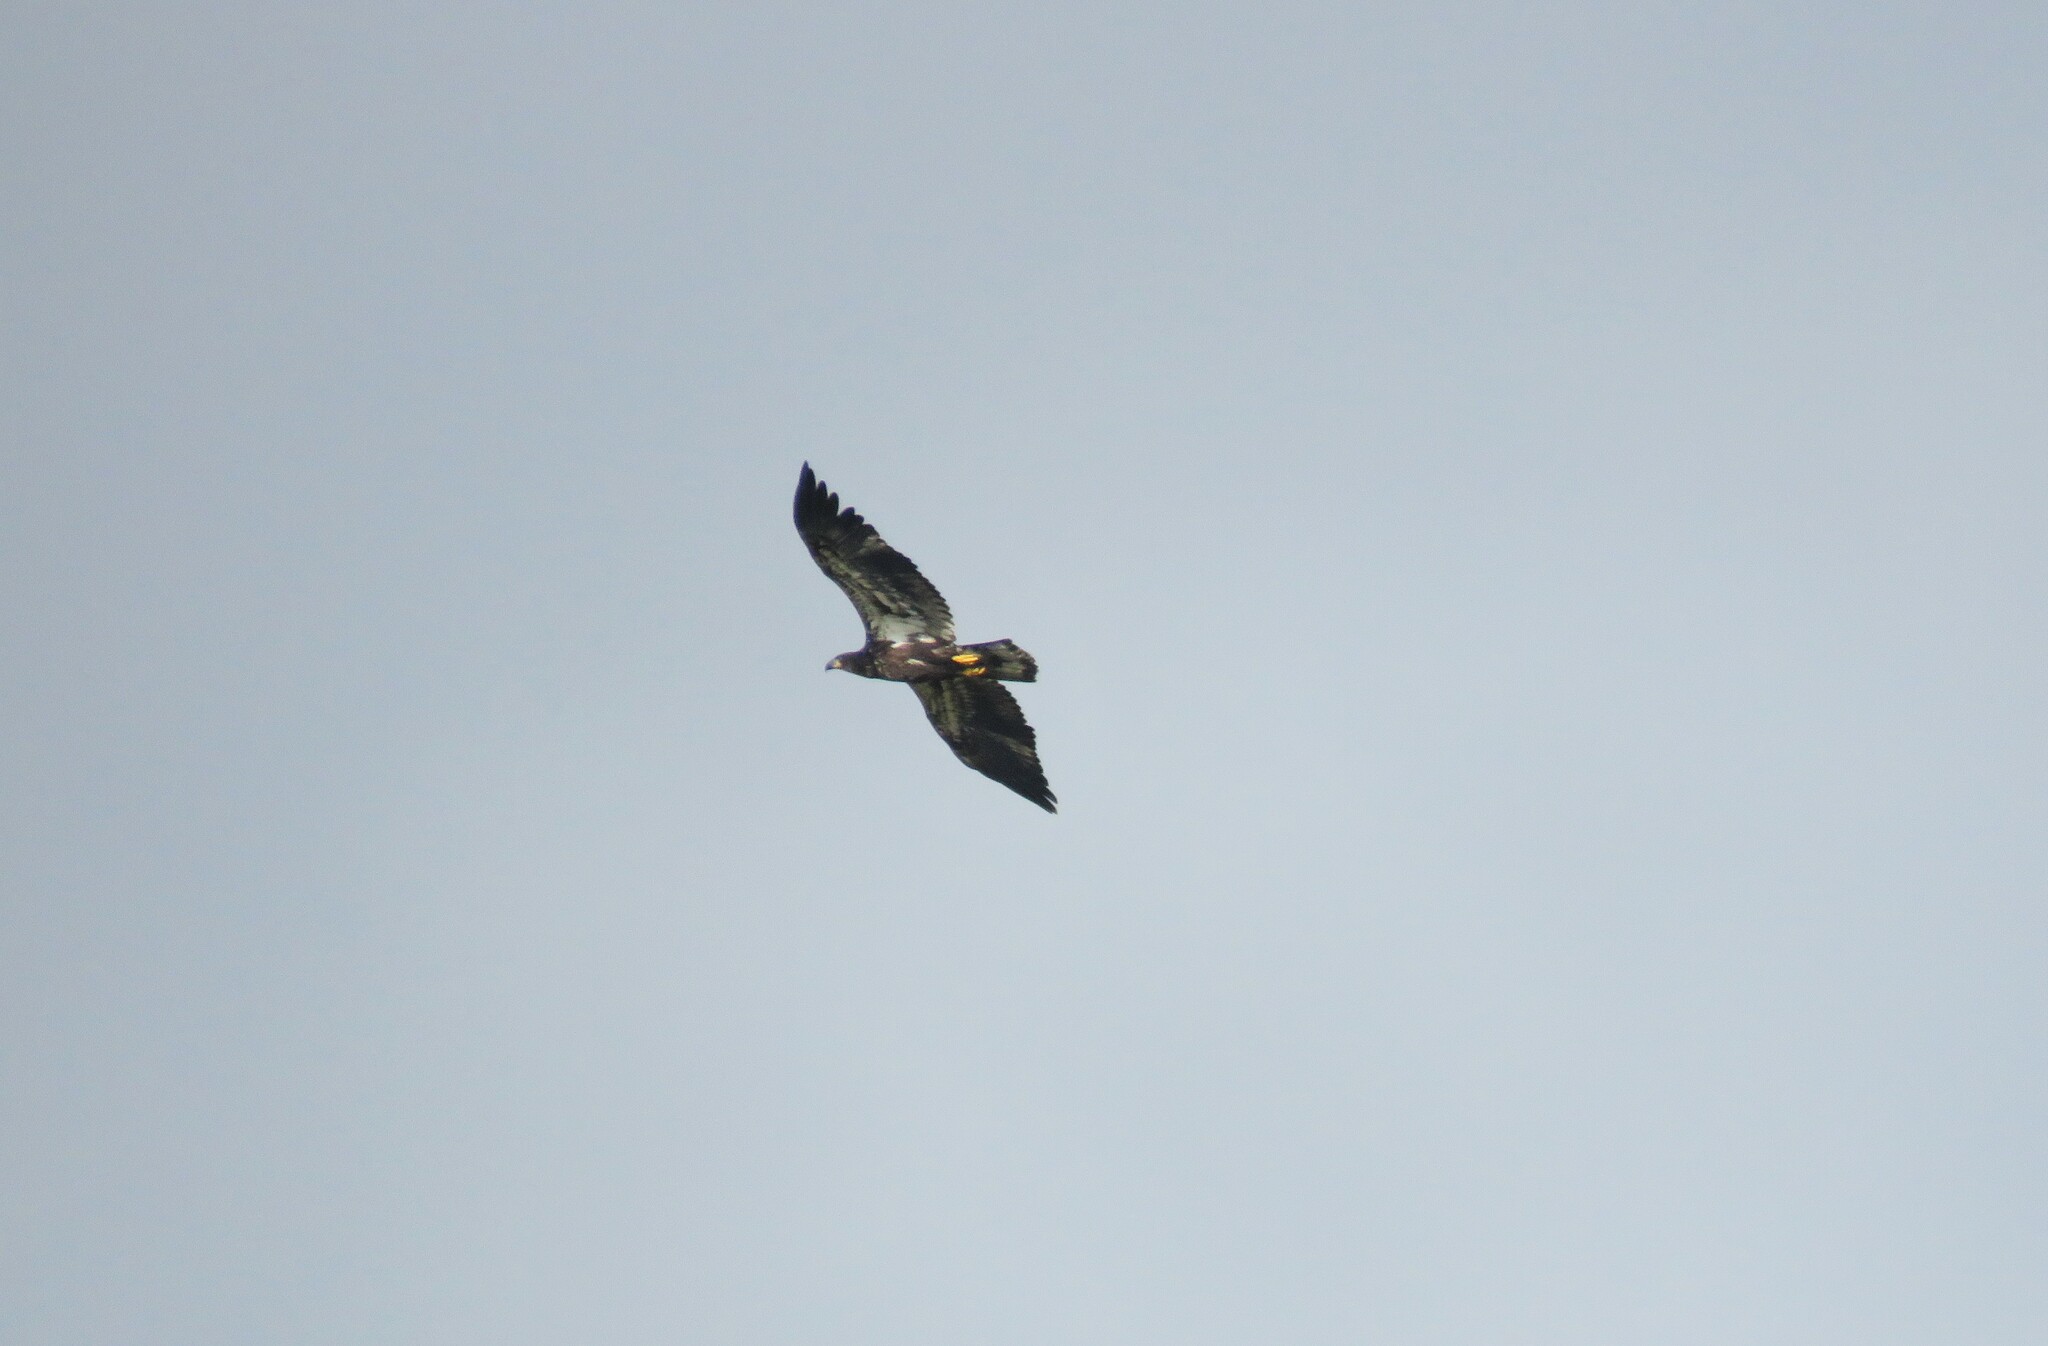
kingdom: Animalia
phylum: Chordata
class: Aves
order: Accipitriformes
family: Accipitridae
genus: Haliaeetus
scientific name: Haliaeetus leucocephalus
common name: Bald eagle
